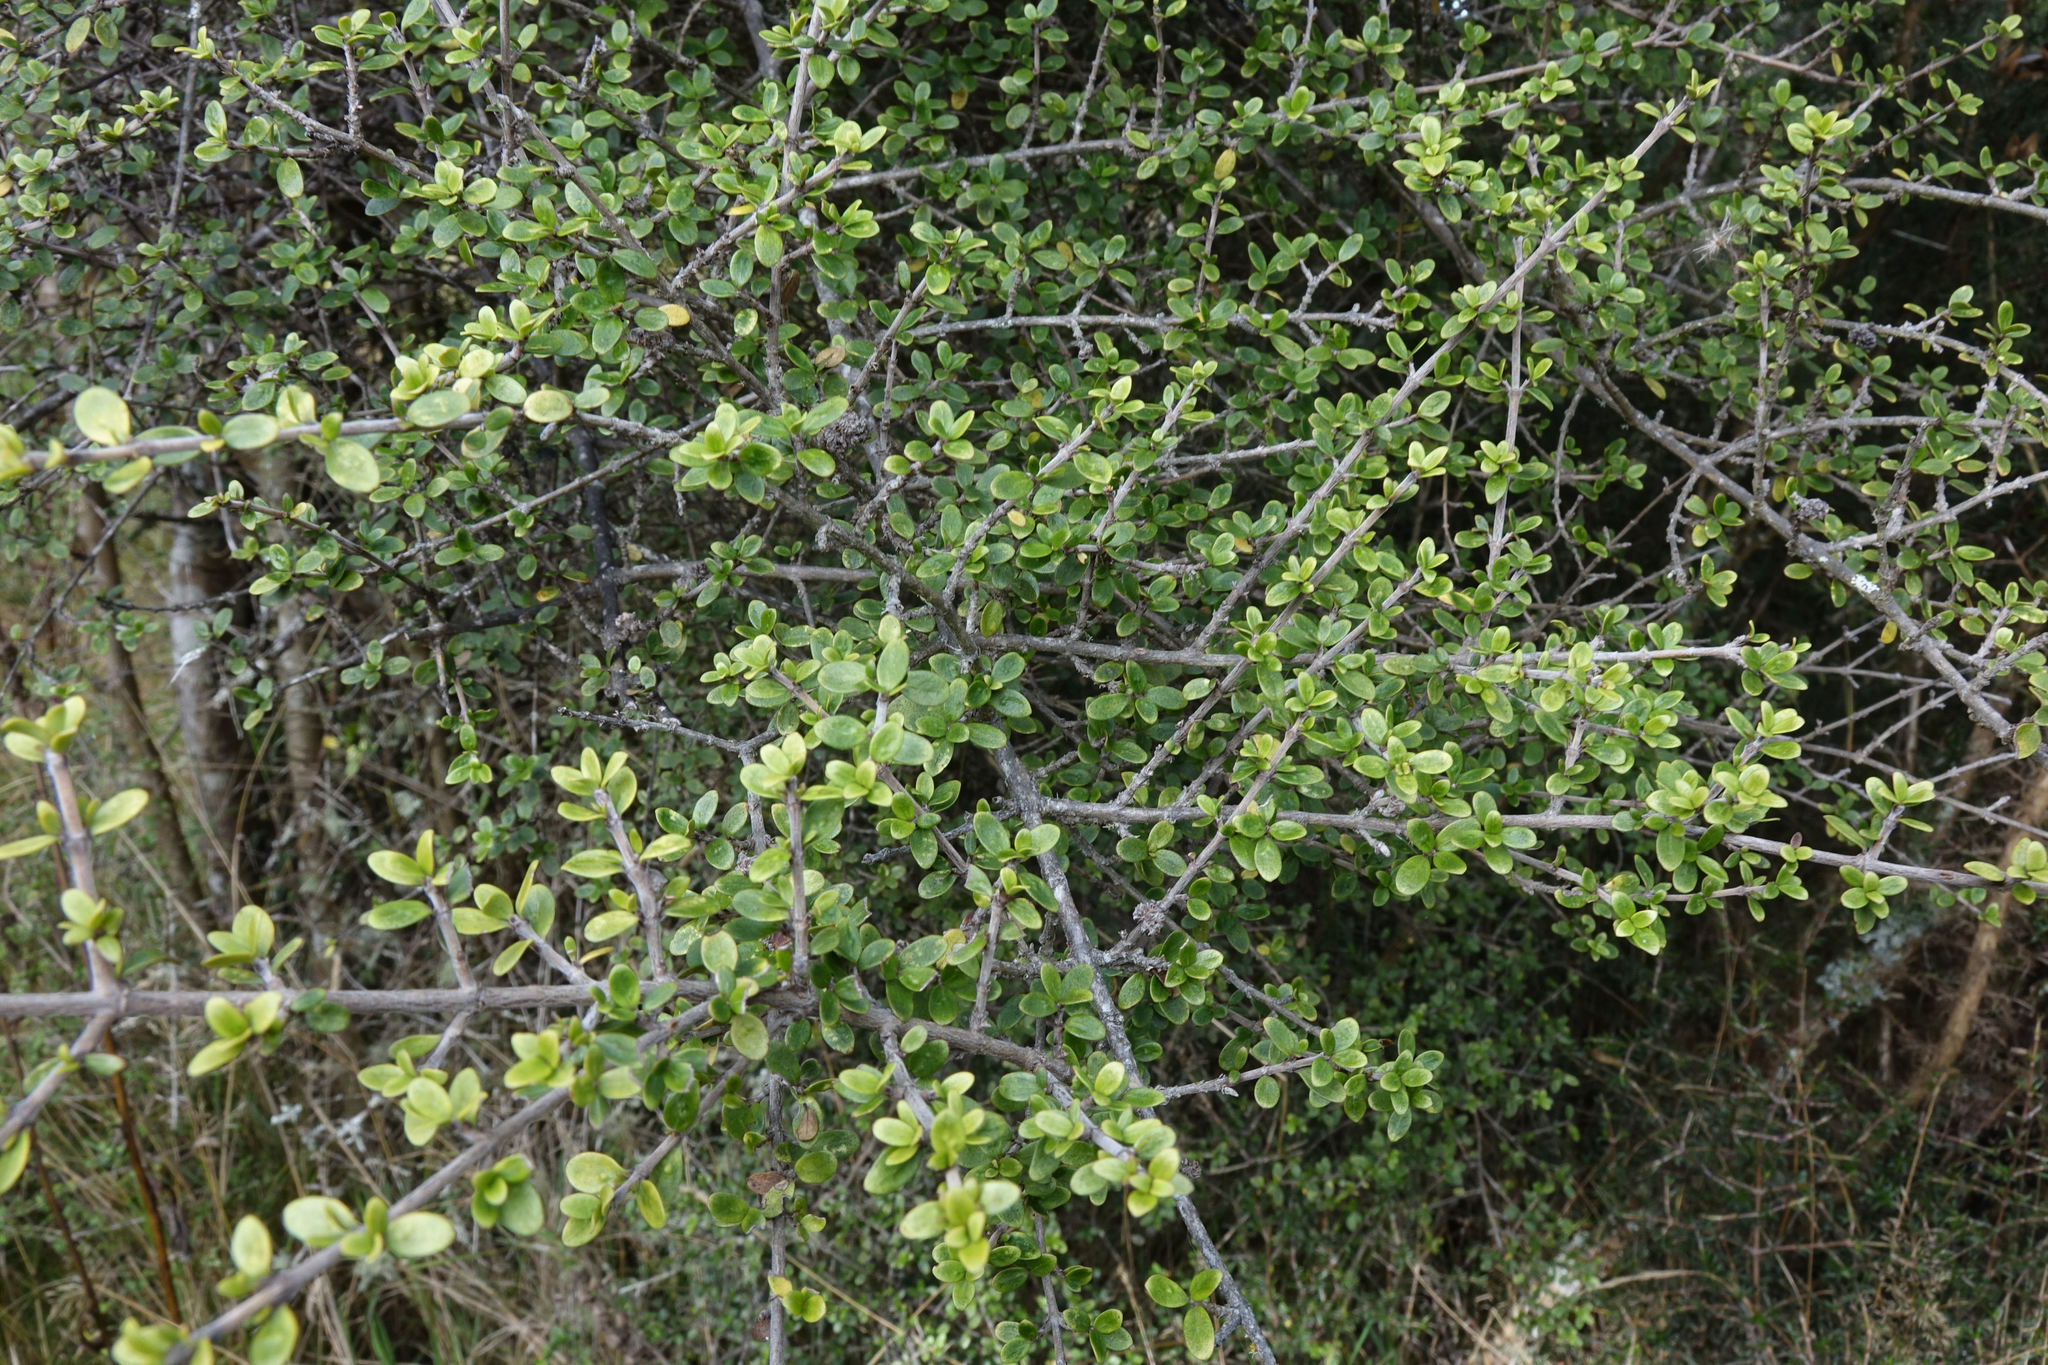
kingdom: Plantae
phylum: Tracheophyta
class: Magnoliopsida
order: Gentianales
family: Rubiaceae
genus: Coprosma
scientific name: Coprosma dumosa
